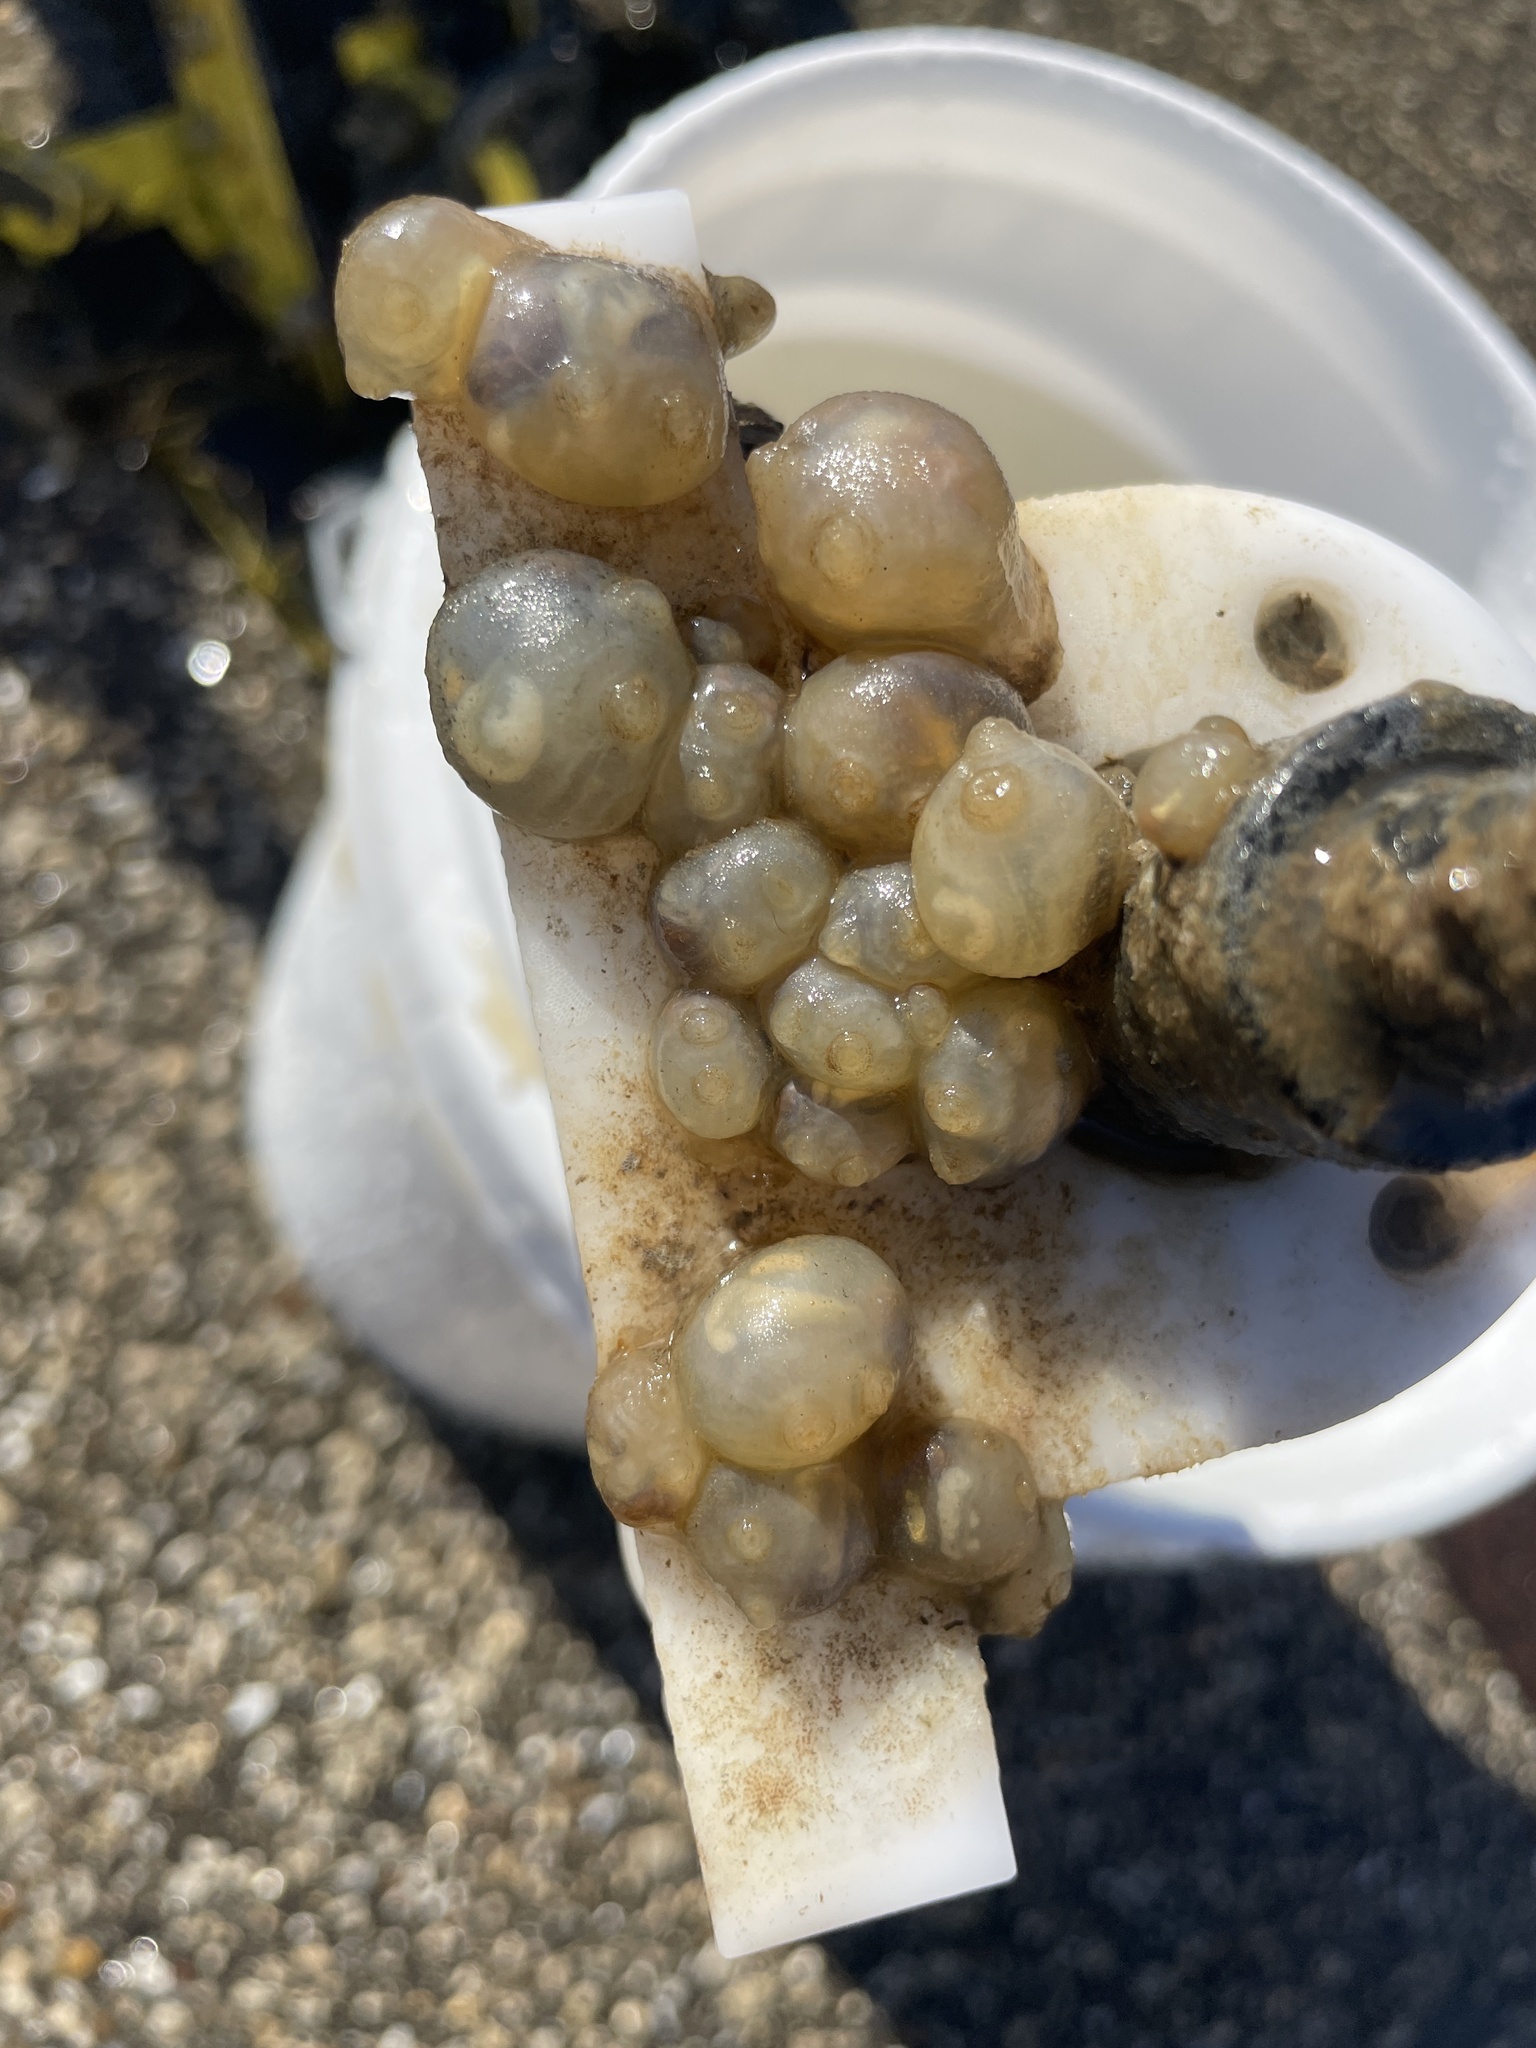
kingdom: Animalia
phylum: Chordata
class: Ascidiacea
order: Stolidobranchia
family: Molgulidae
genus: Molgula
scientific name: Molgula manhattensis
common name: Molgula
